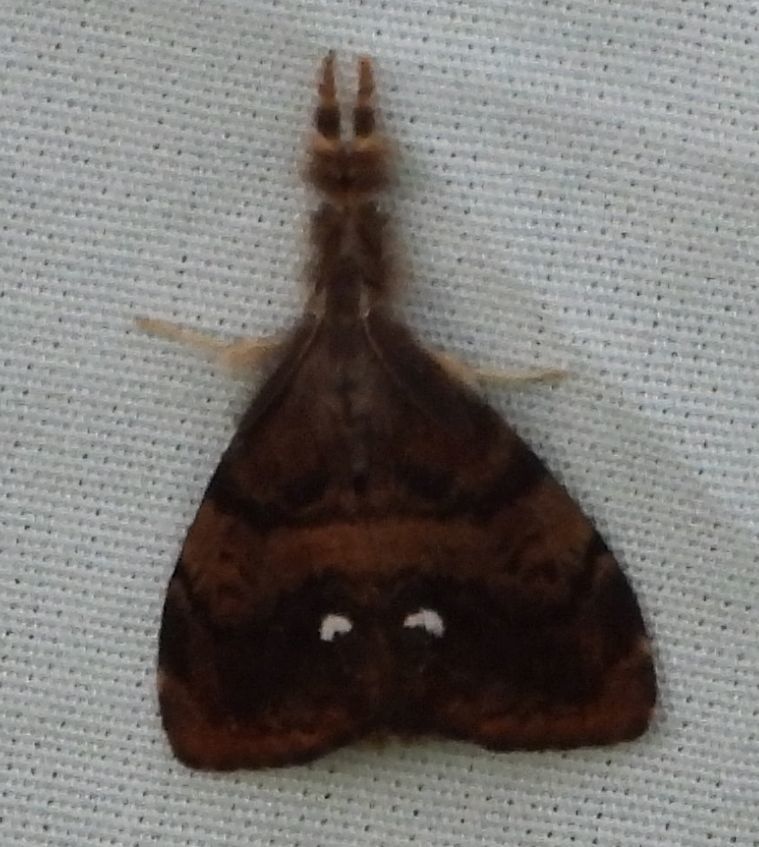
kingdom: Animalia
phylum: Arthropoda
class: Insecta
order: Lepidoptera
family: Erebidae
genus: Orgyia
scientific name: Orgyia antiqua
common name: Vapourer
